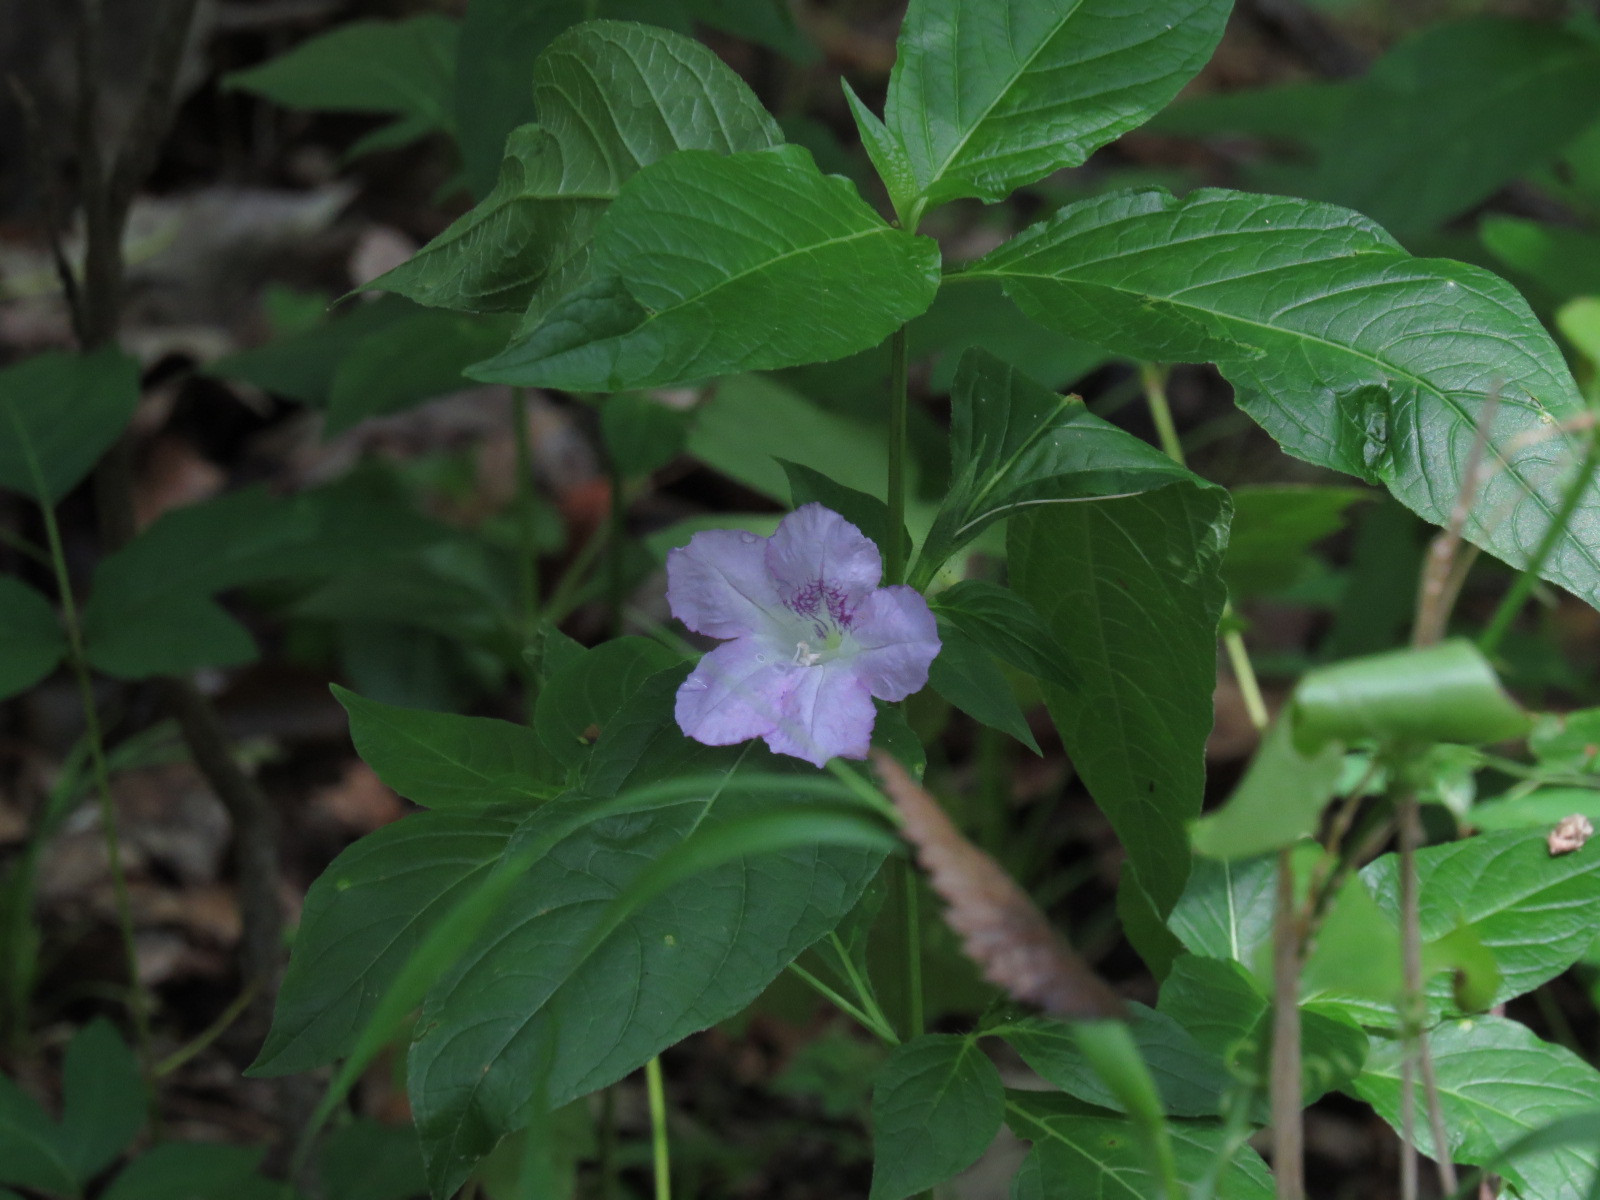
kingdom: Plantae
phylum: Tracheophyta
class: Magnoliopsida
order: Lamiales
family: Acanthaceae
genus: Ruellia
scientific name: Ruellia strepens
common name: Limestone wild petunia
